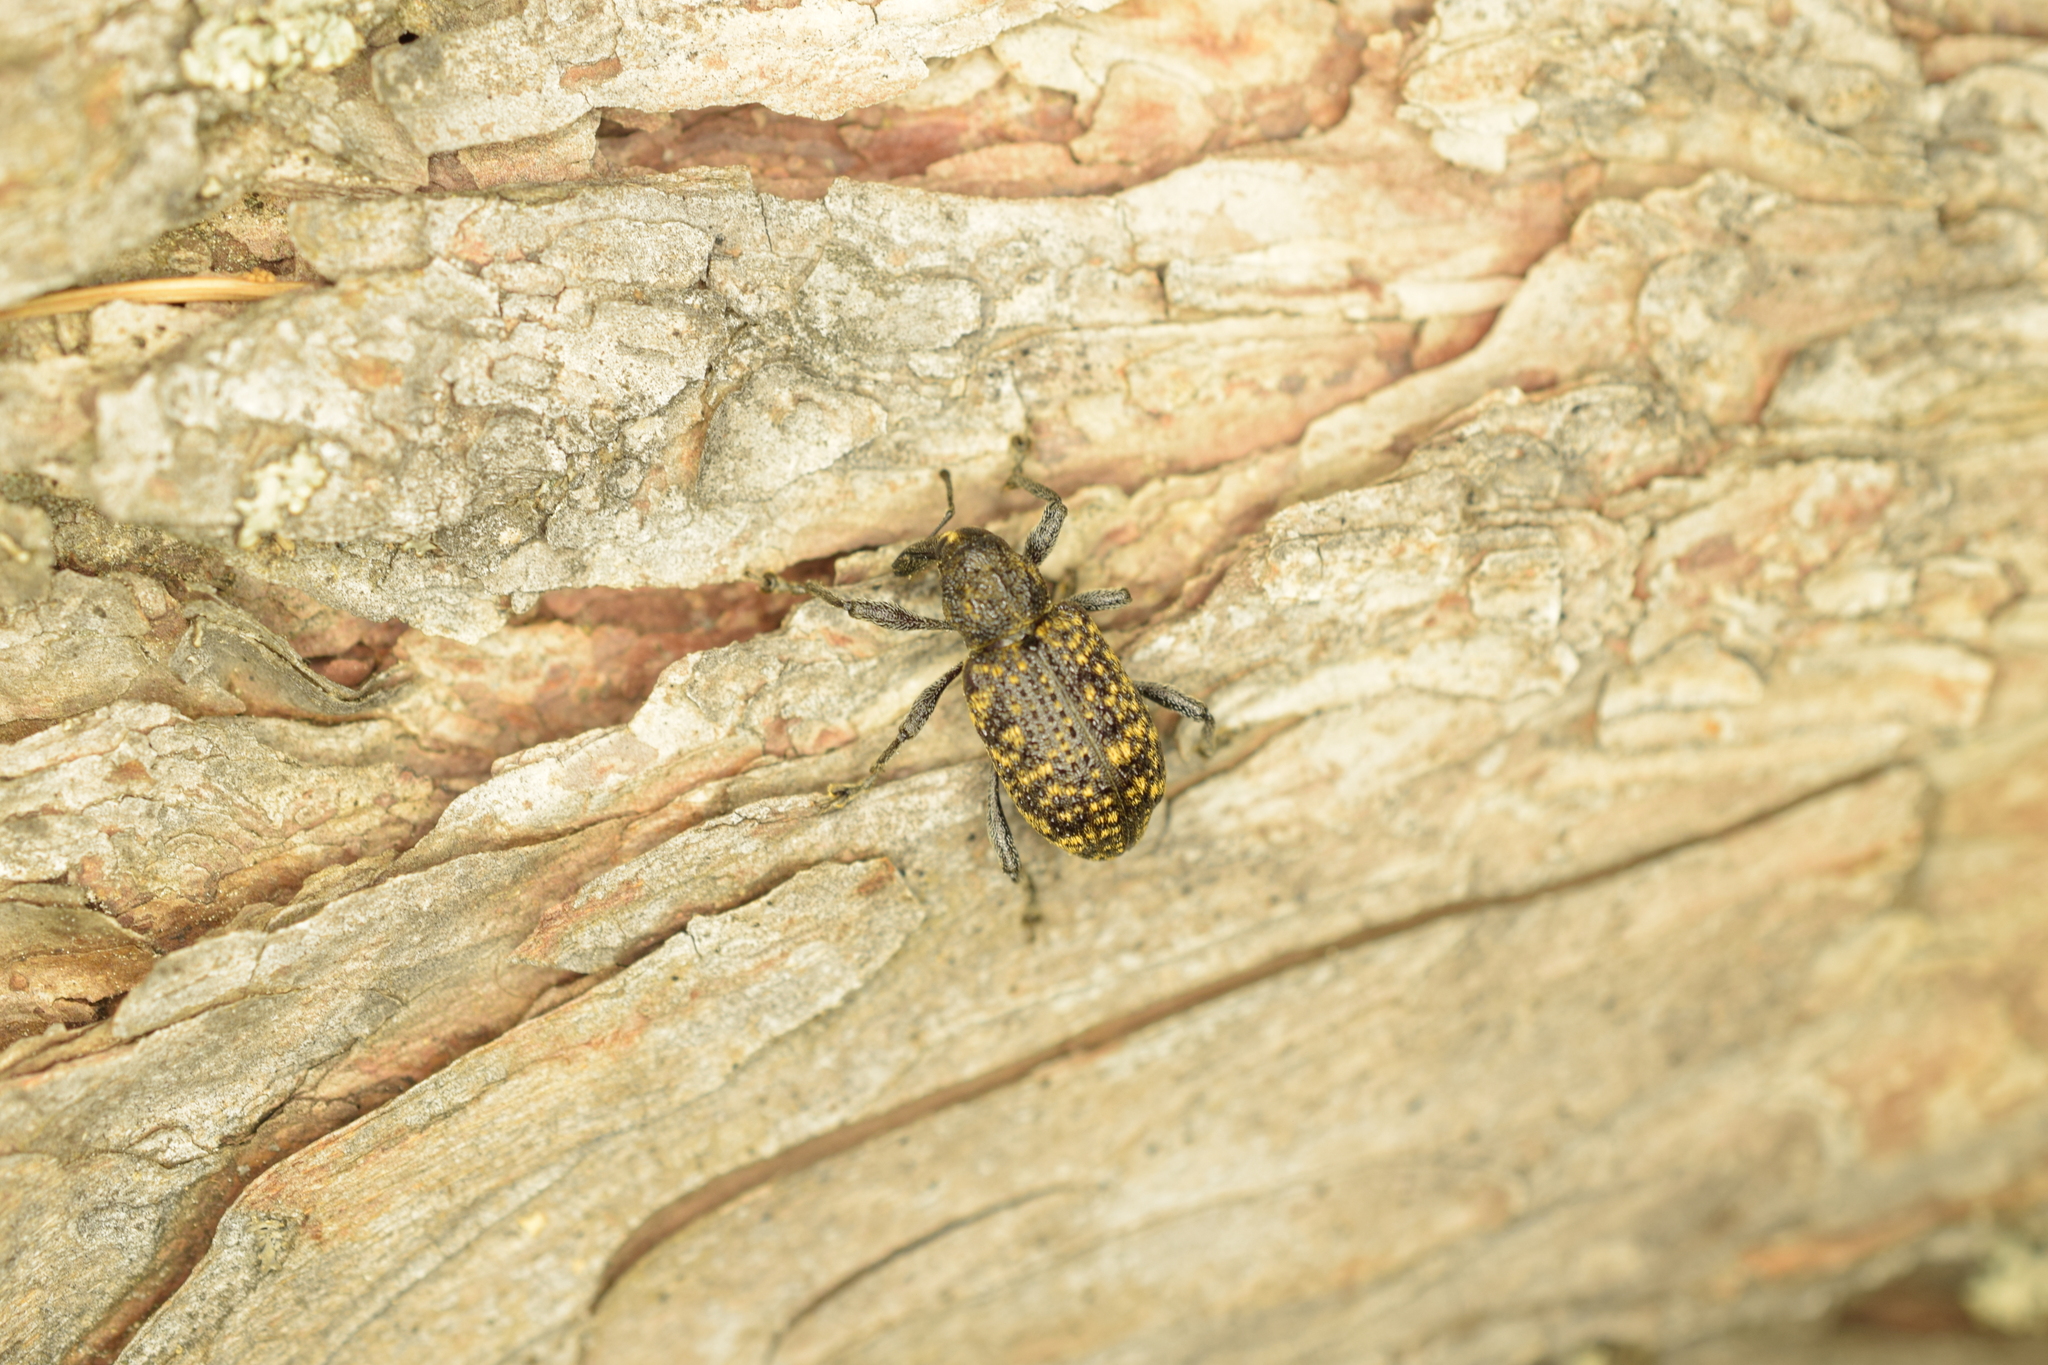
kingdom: Animalia
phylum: Arthropoda
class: Insecta
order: Coleoptera
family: Curculionidae
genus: Hylobius
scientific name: Hylobius excavatus
